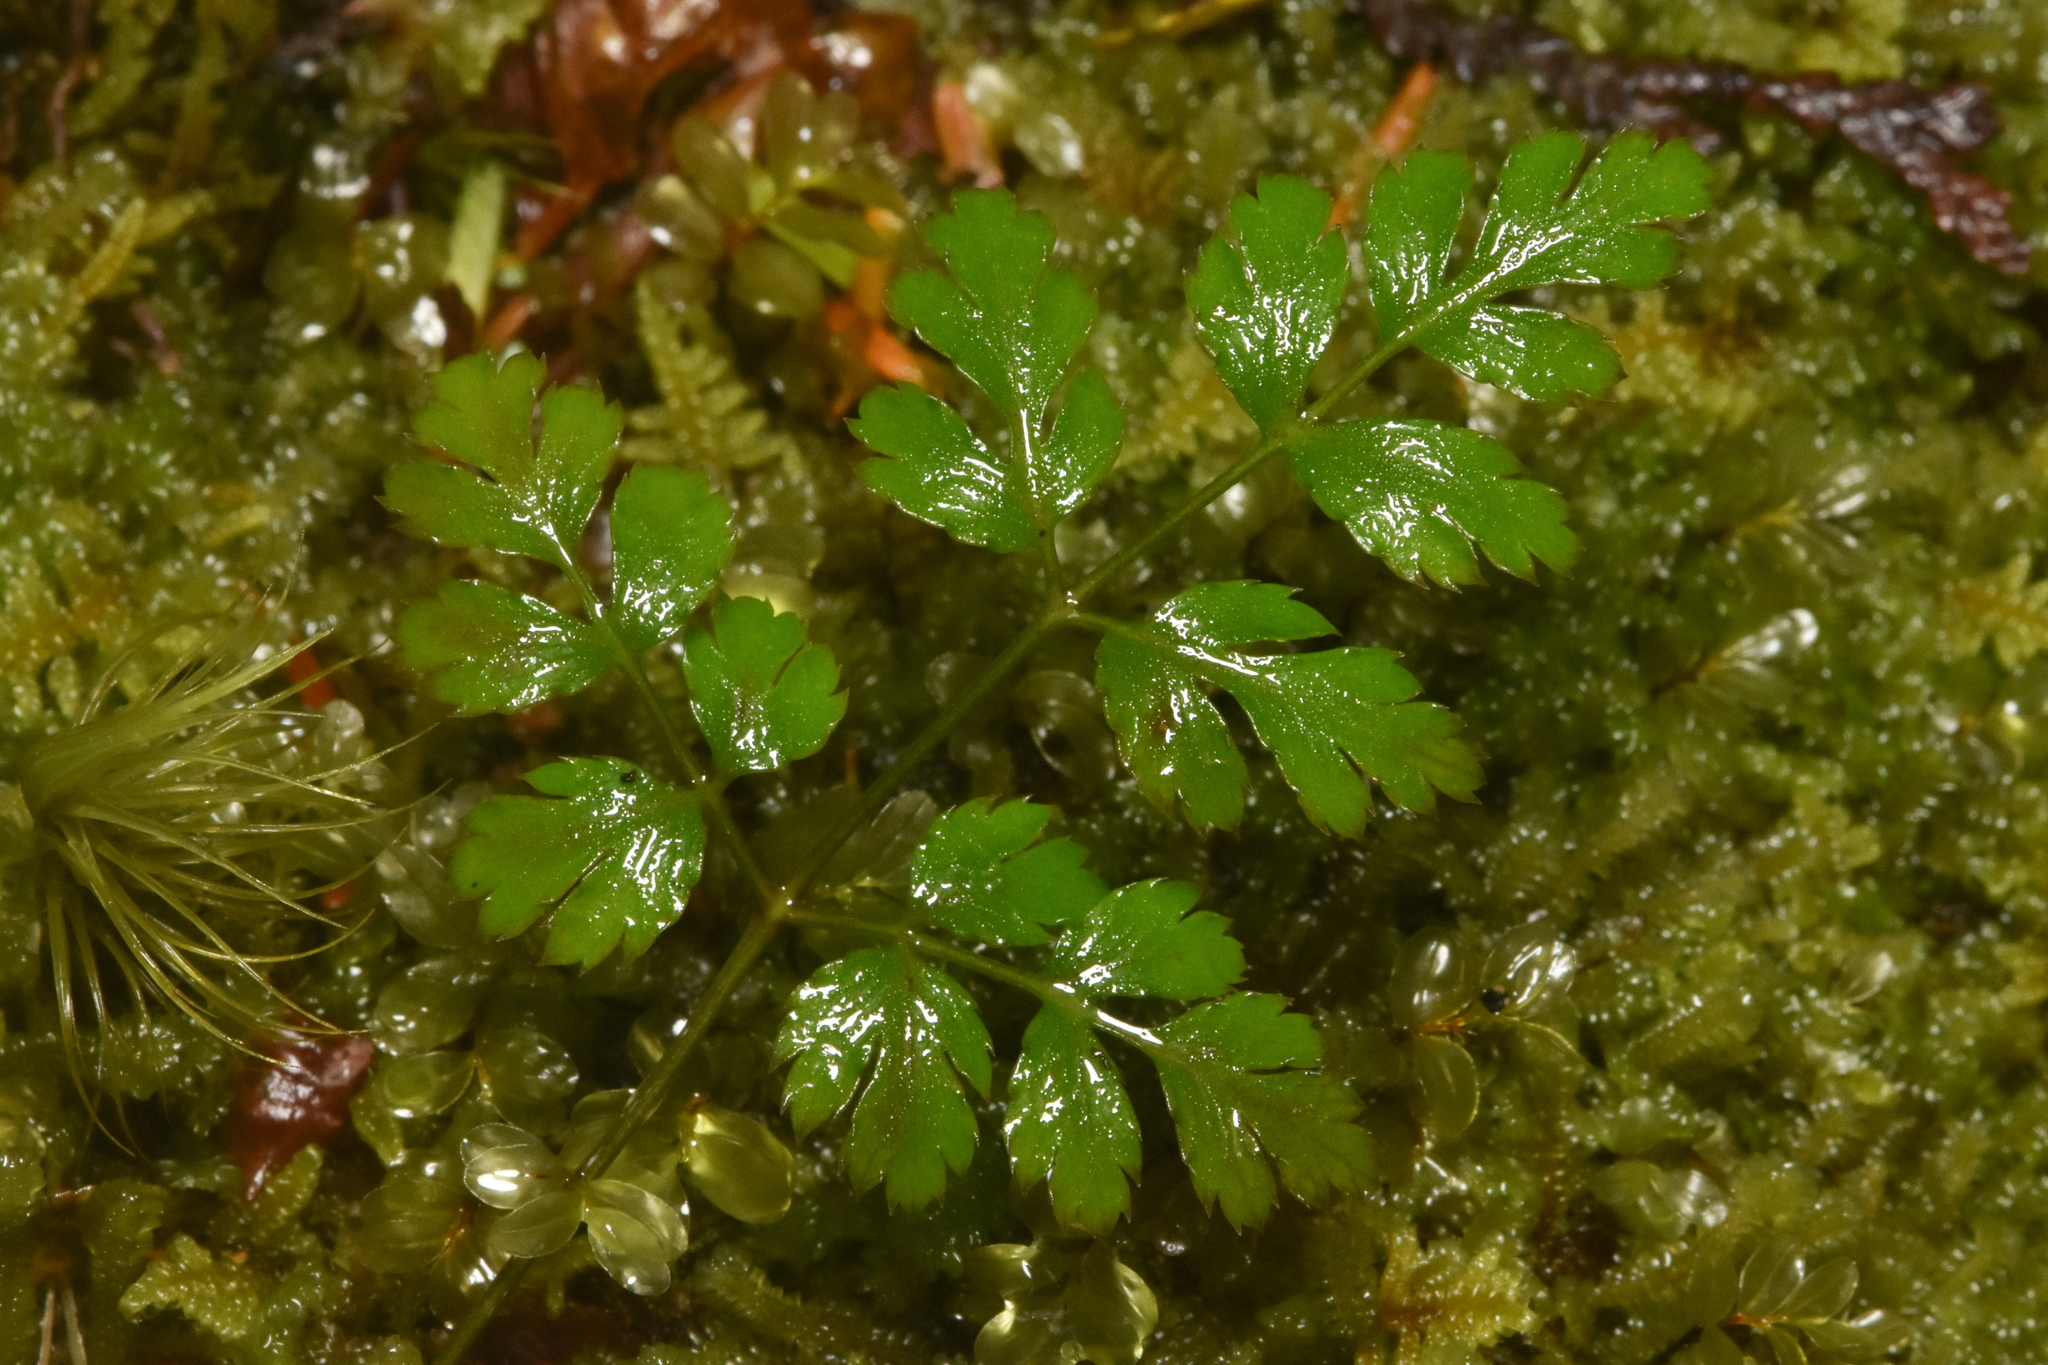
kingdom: Plantae
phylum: Tracheophyta
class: Magnoliopsida
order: Ranunculales
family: Ranunculaceae
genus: Coptis
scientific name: Coptis aspleniifolia
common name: Fern-leaved goldthread
